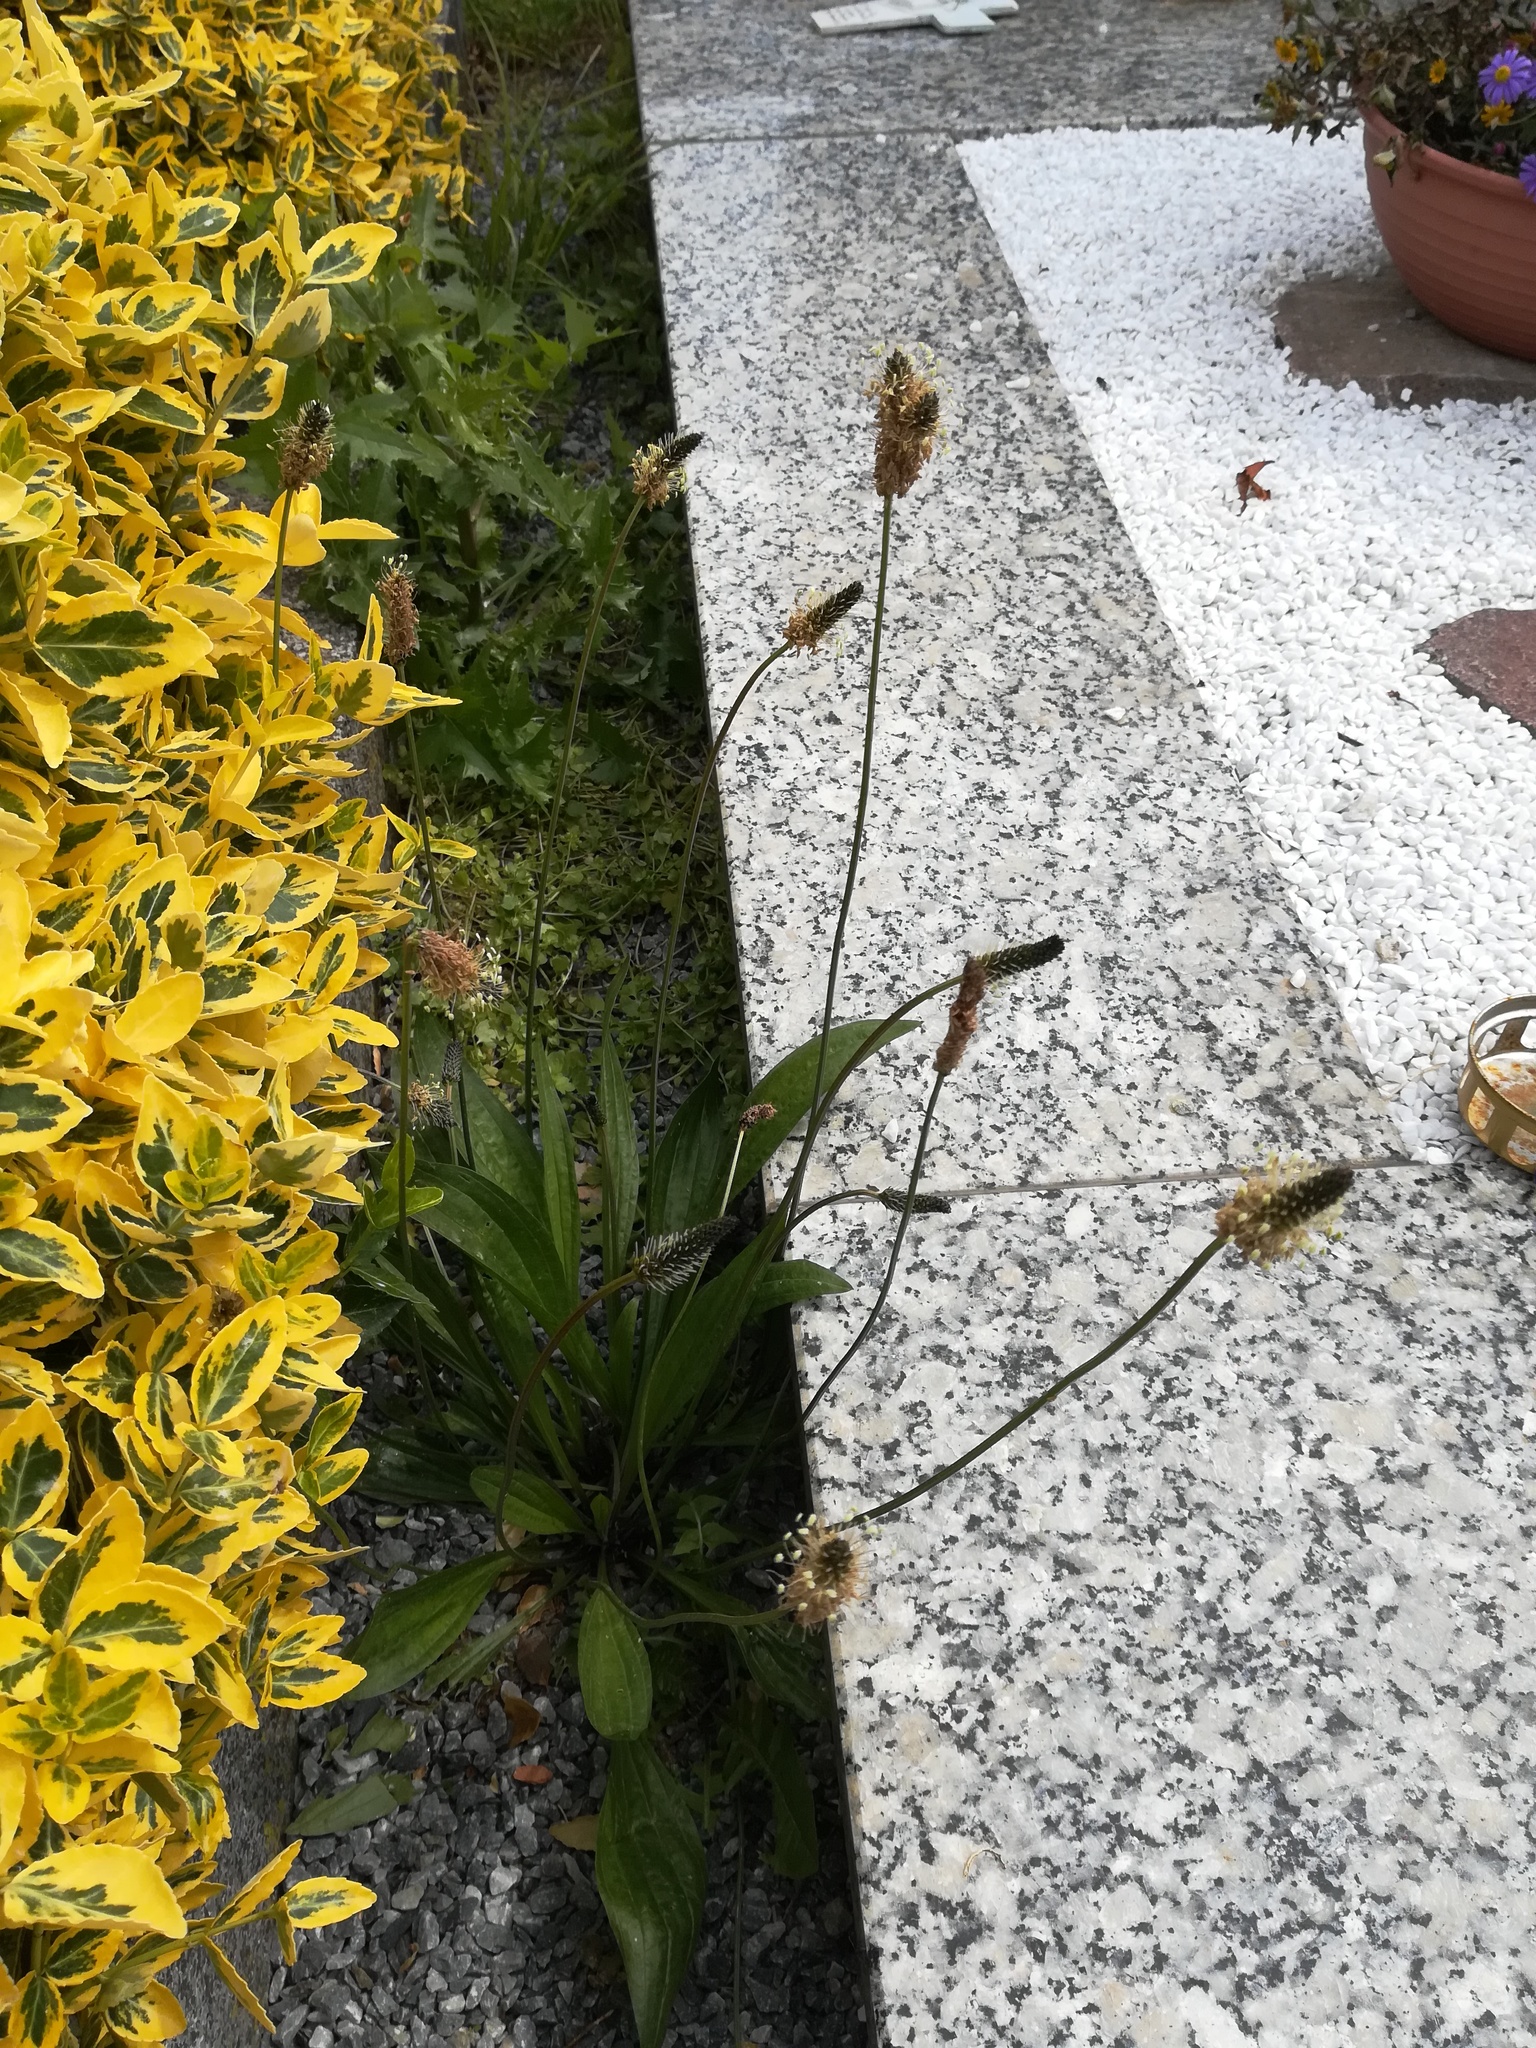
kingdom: Plantae
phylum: Tracheophyta
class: Magnoliopsida
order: Lamiales
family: Plantaginaceae
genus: Plantago
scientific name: Plantago lanceolata
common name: Ribwort plantain
